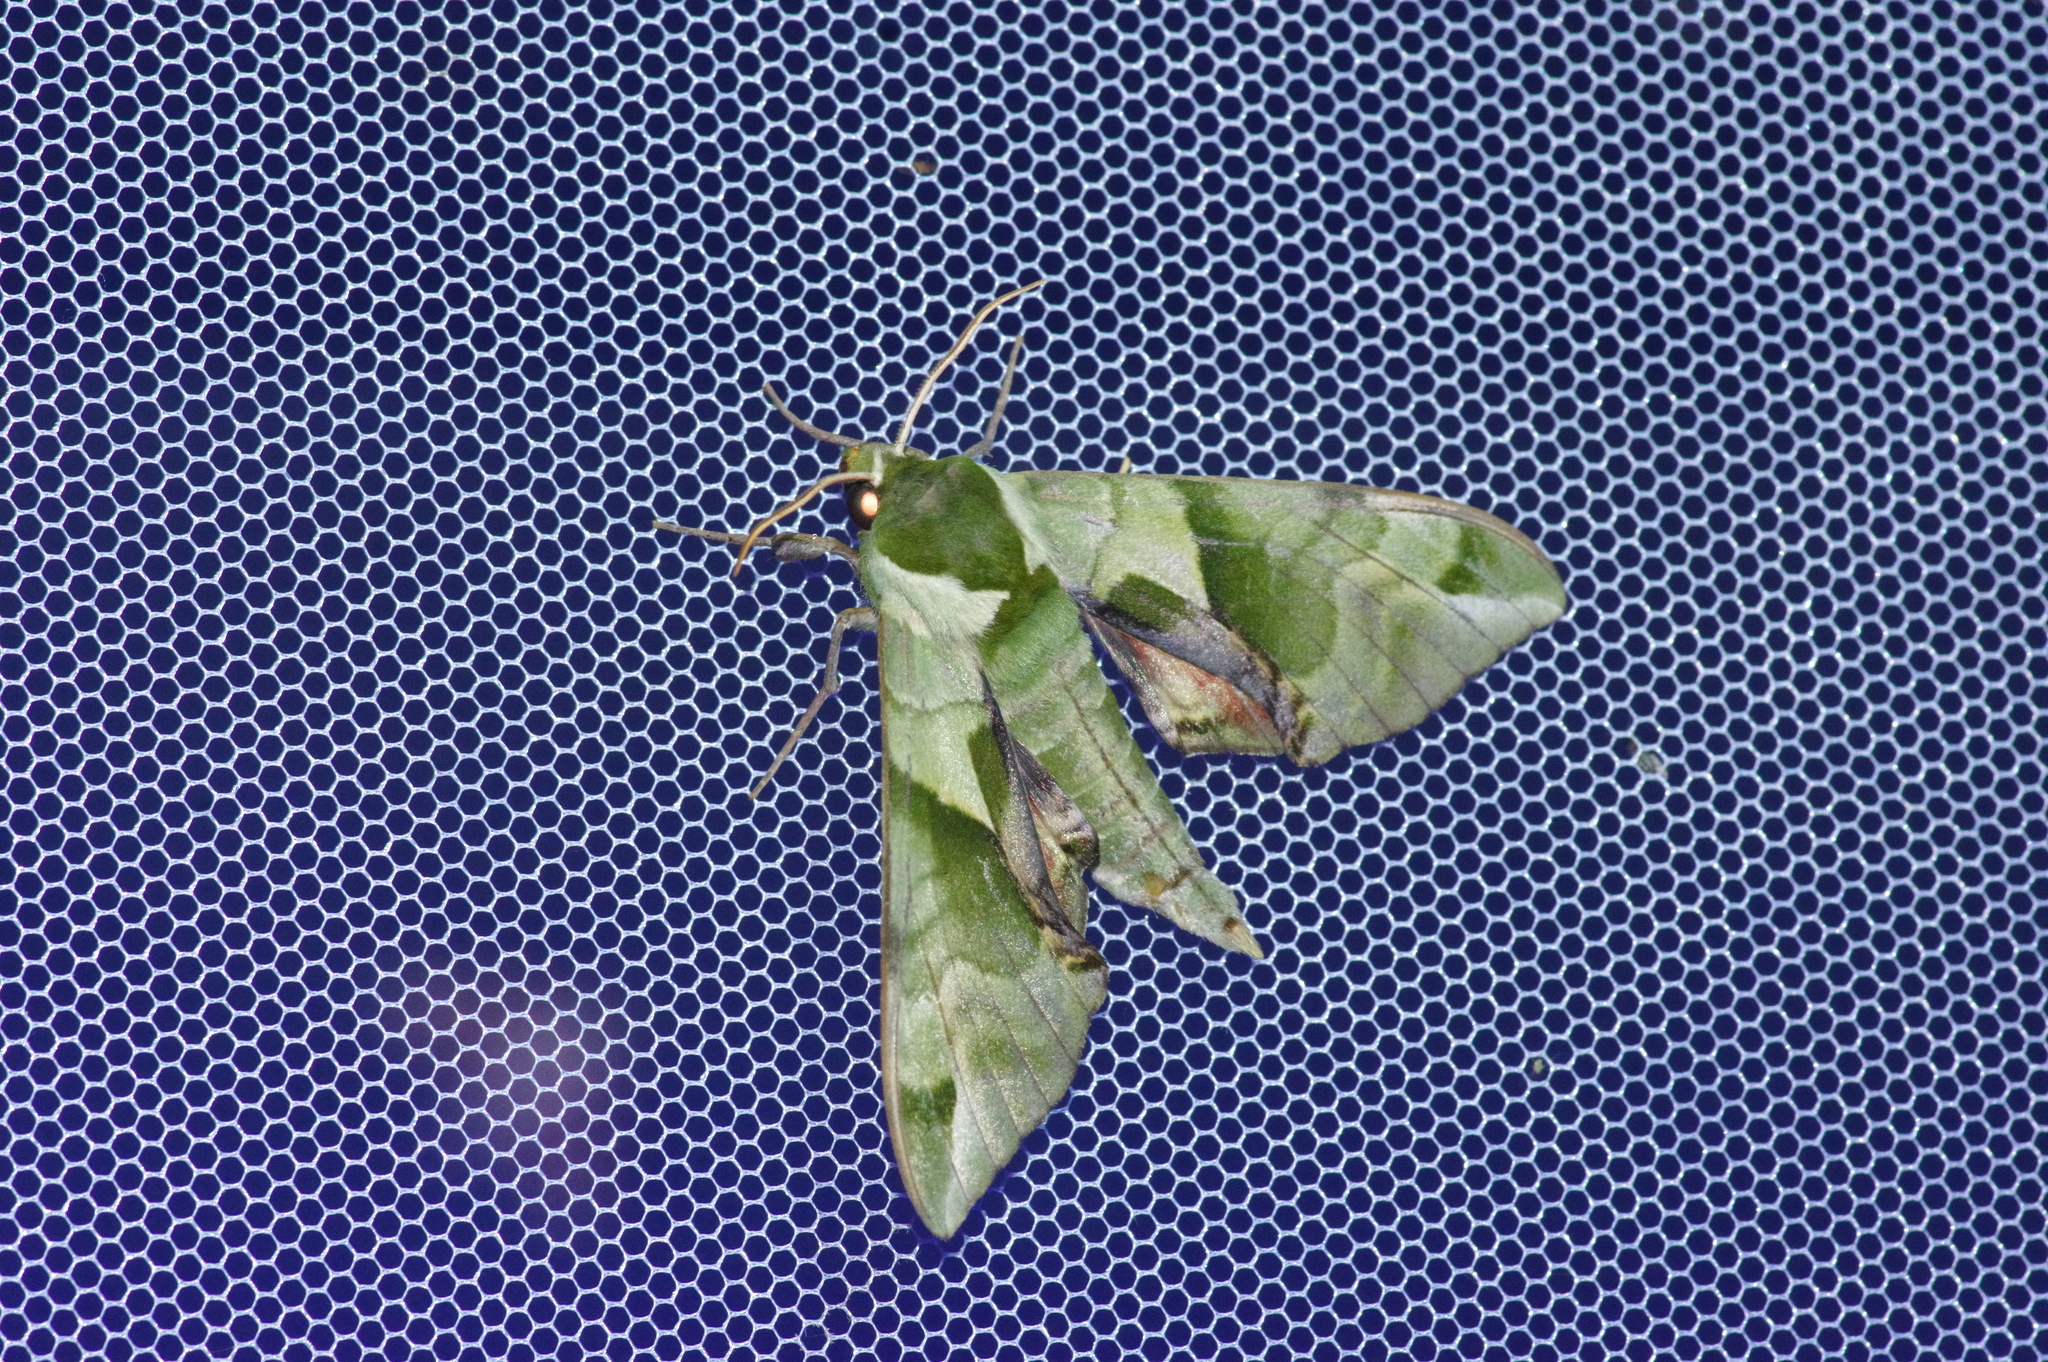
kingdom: Animalia
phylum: Arthropoda
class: Insecta
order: Lepidoptera
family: Sphingidae
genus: Callambulyx
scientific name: Callambulyx tatarinovii
